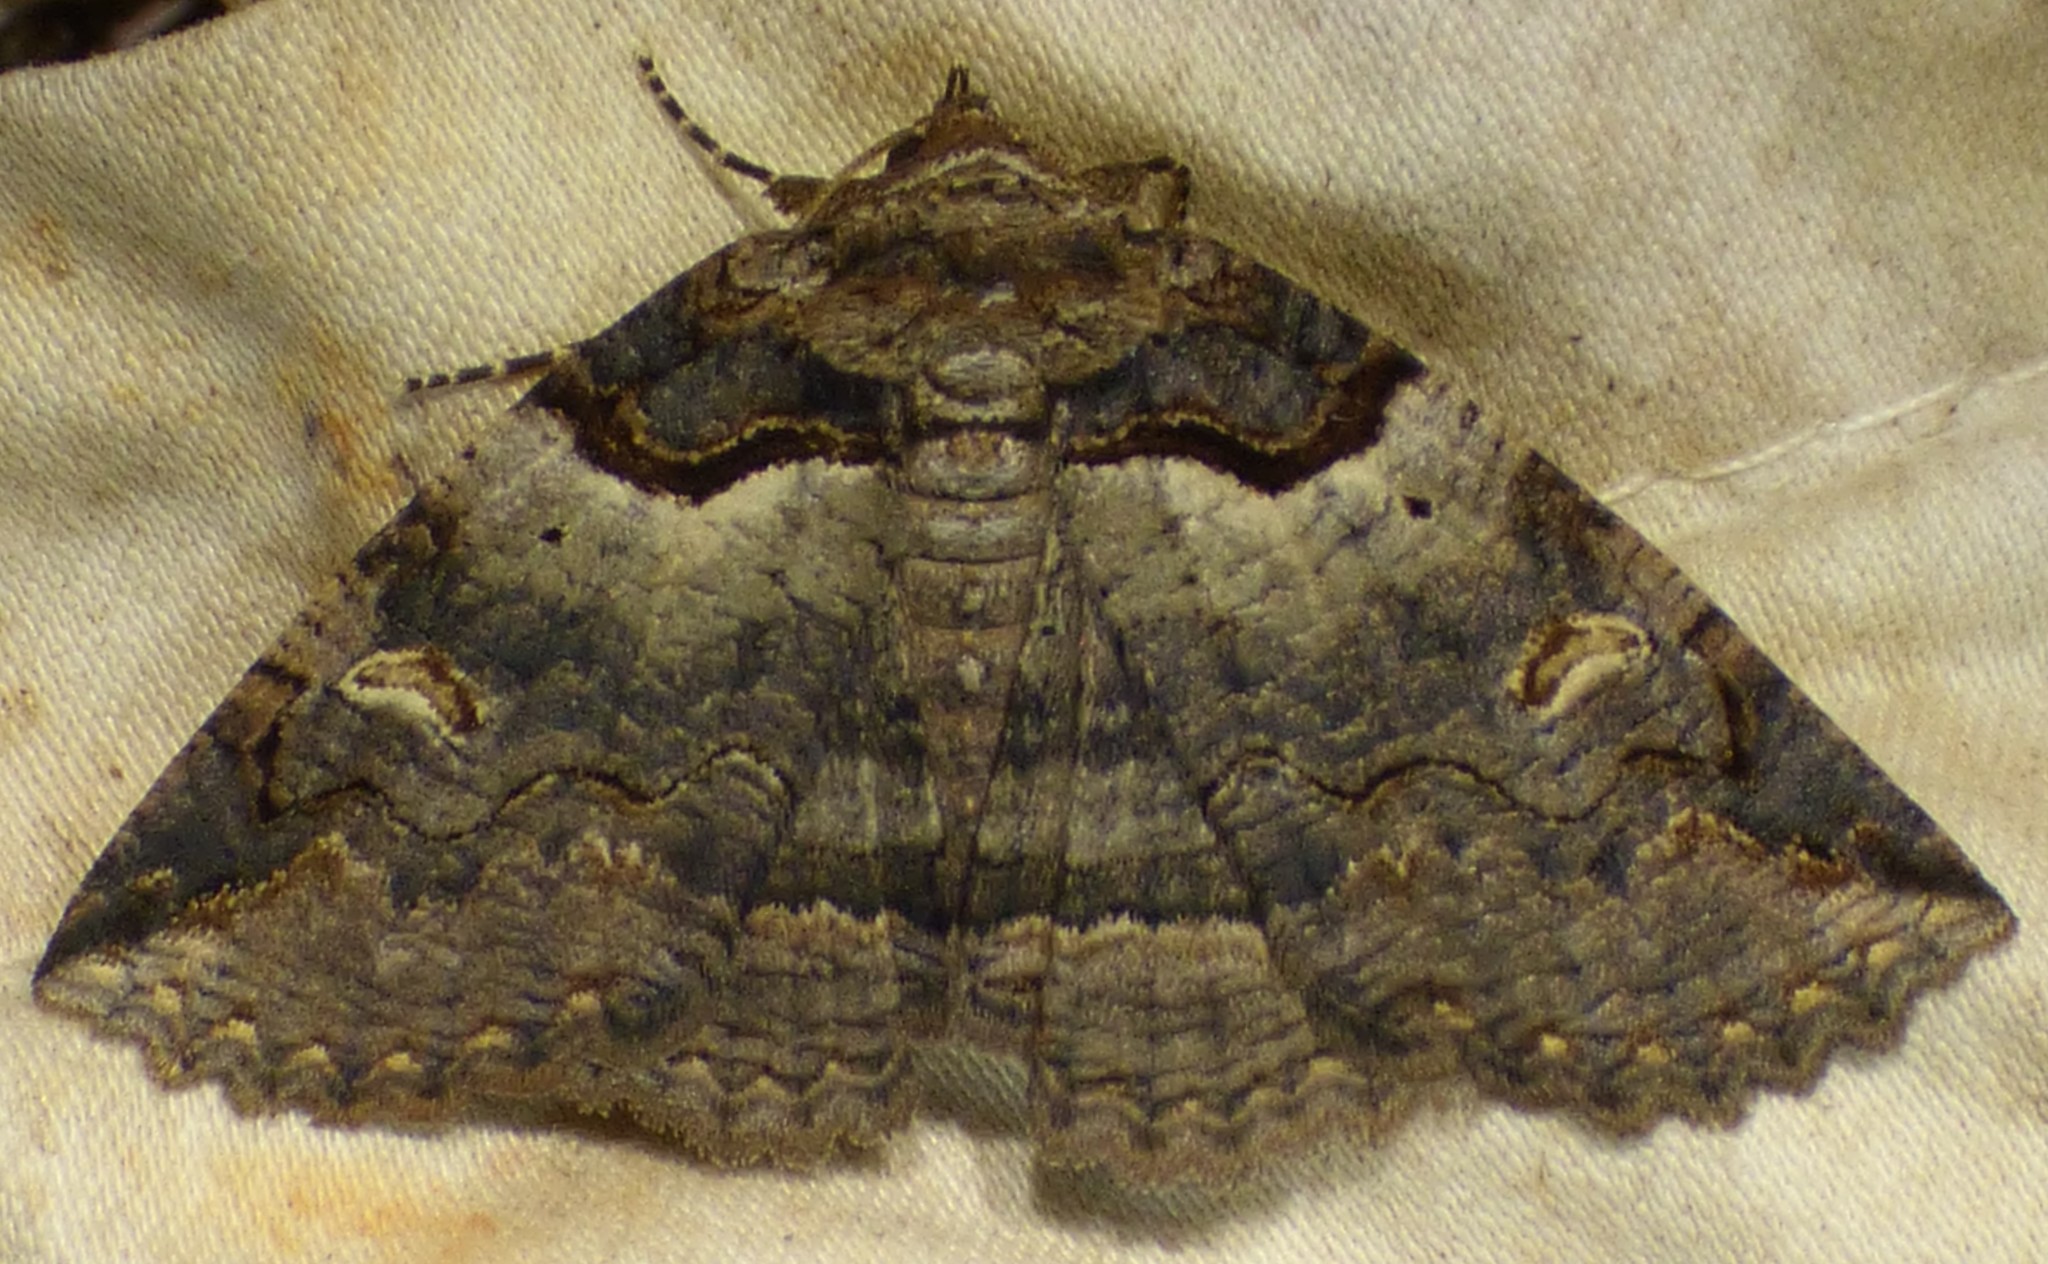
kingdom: Animalia
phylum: Arthropoda
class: Insecta
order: Lepidoptera
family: Erebidae
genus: Zale
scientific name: Zale intenta
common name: Intent zale moth
